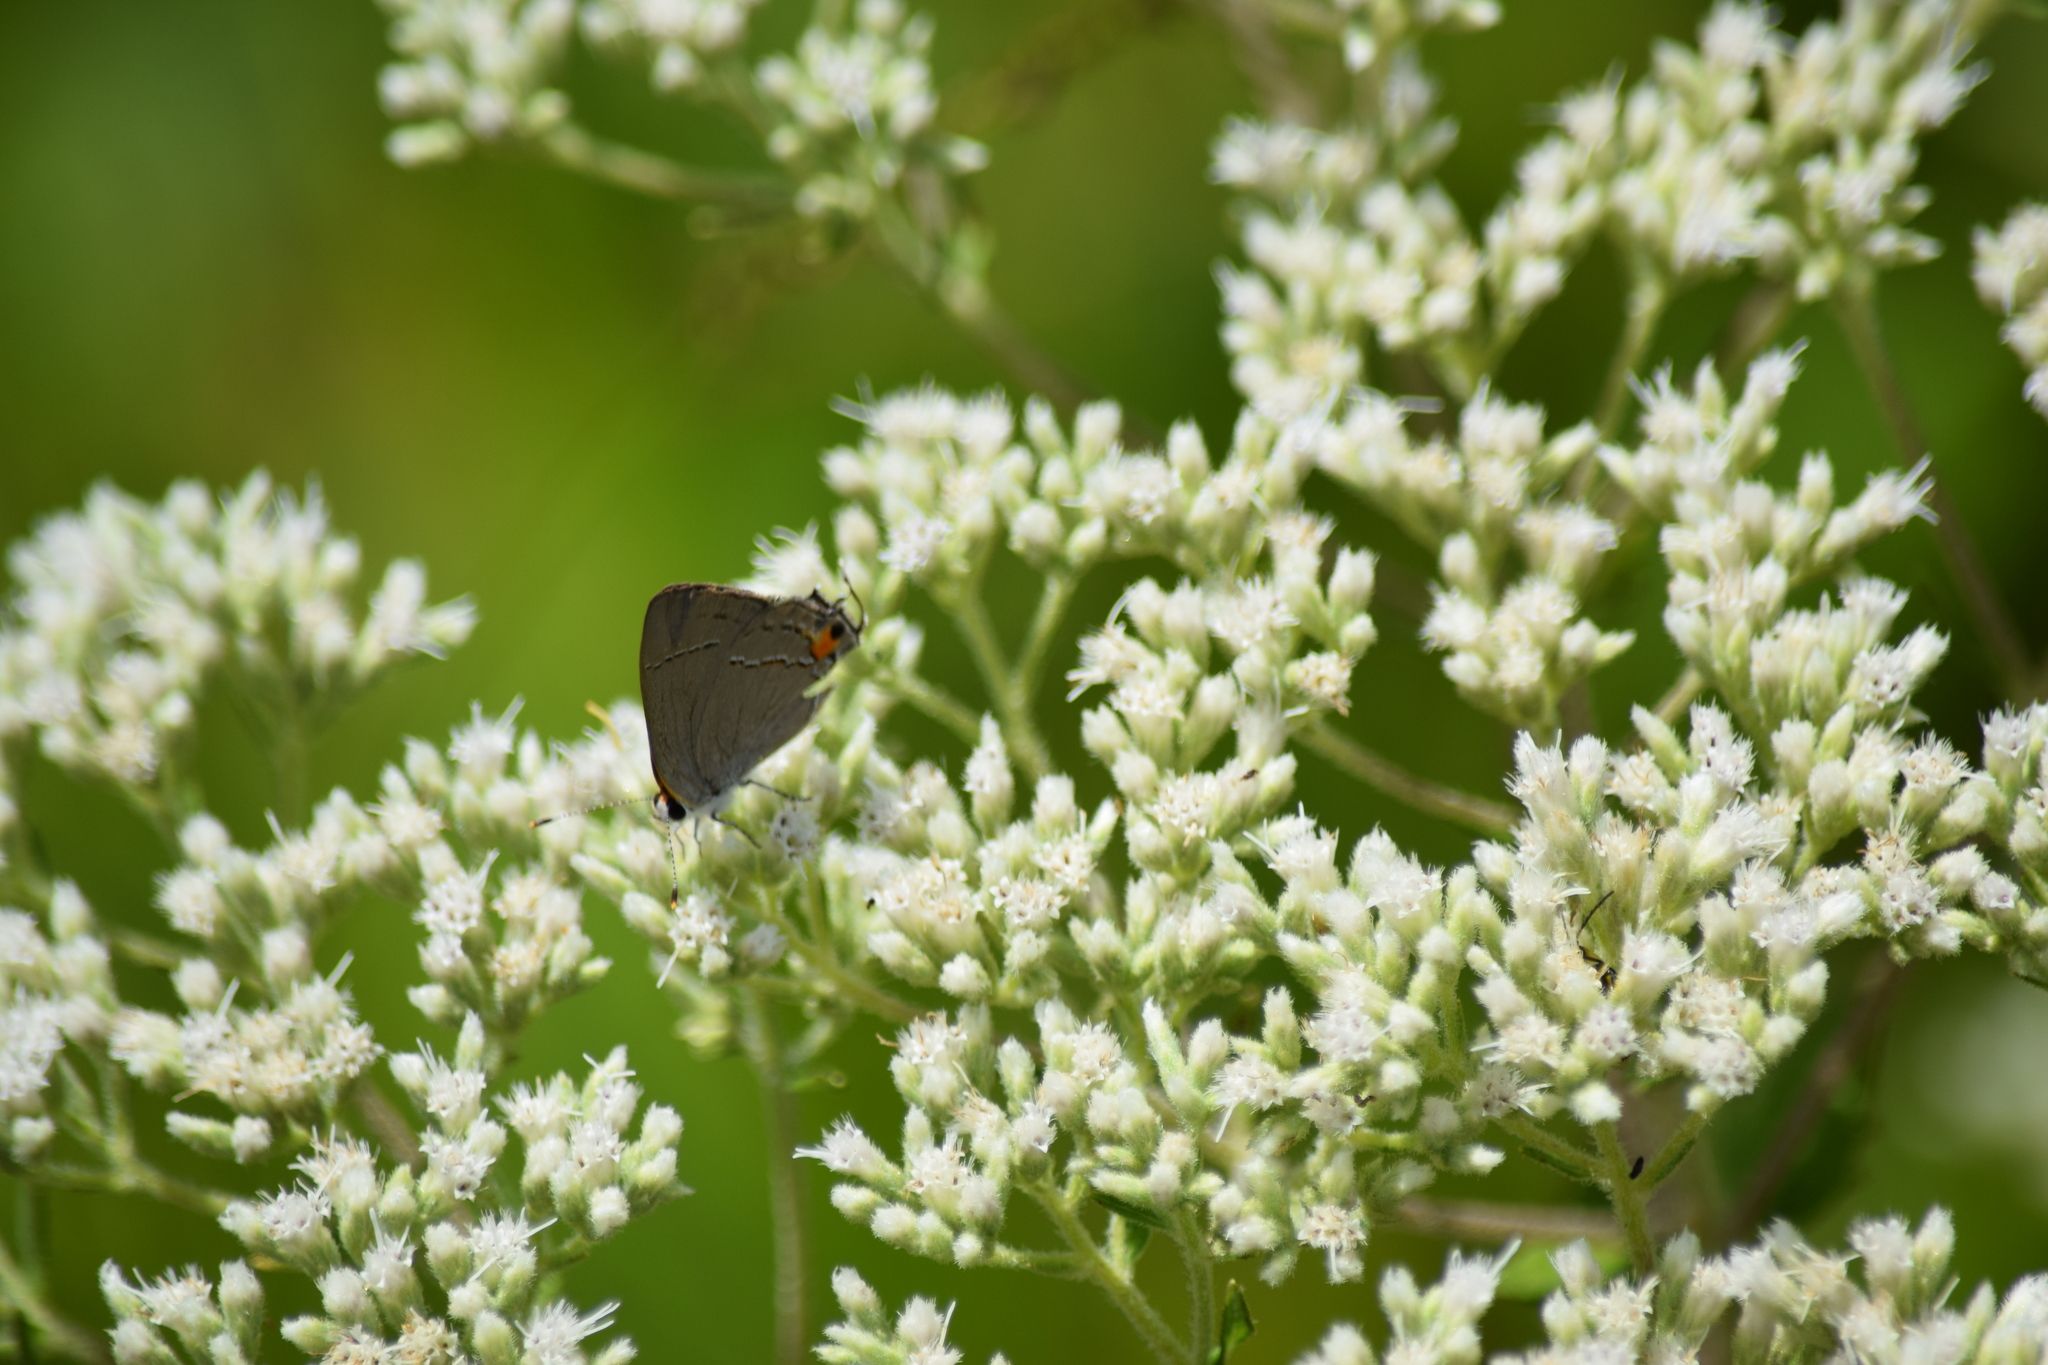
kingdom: Animalia
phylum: Arthropoda
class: Insecta
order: Lepidoptera
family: Lycaenidae
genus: Strymon
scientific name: Strymon melinus
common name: Gray hairstreak
